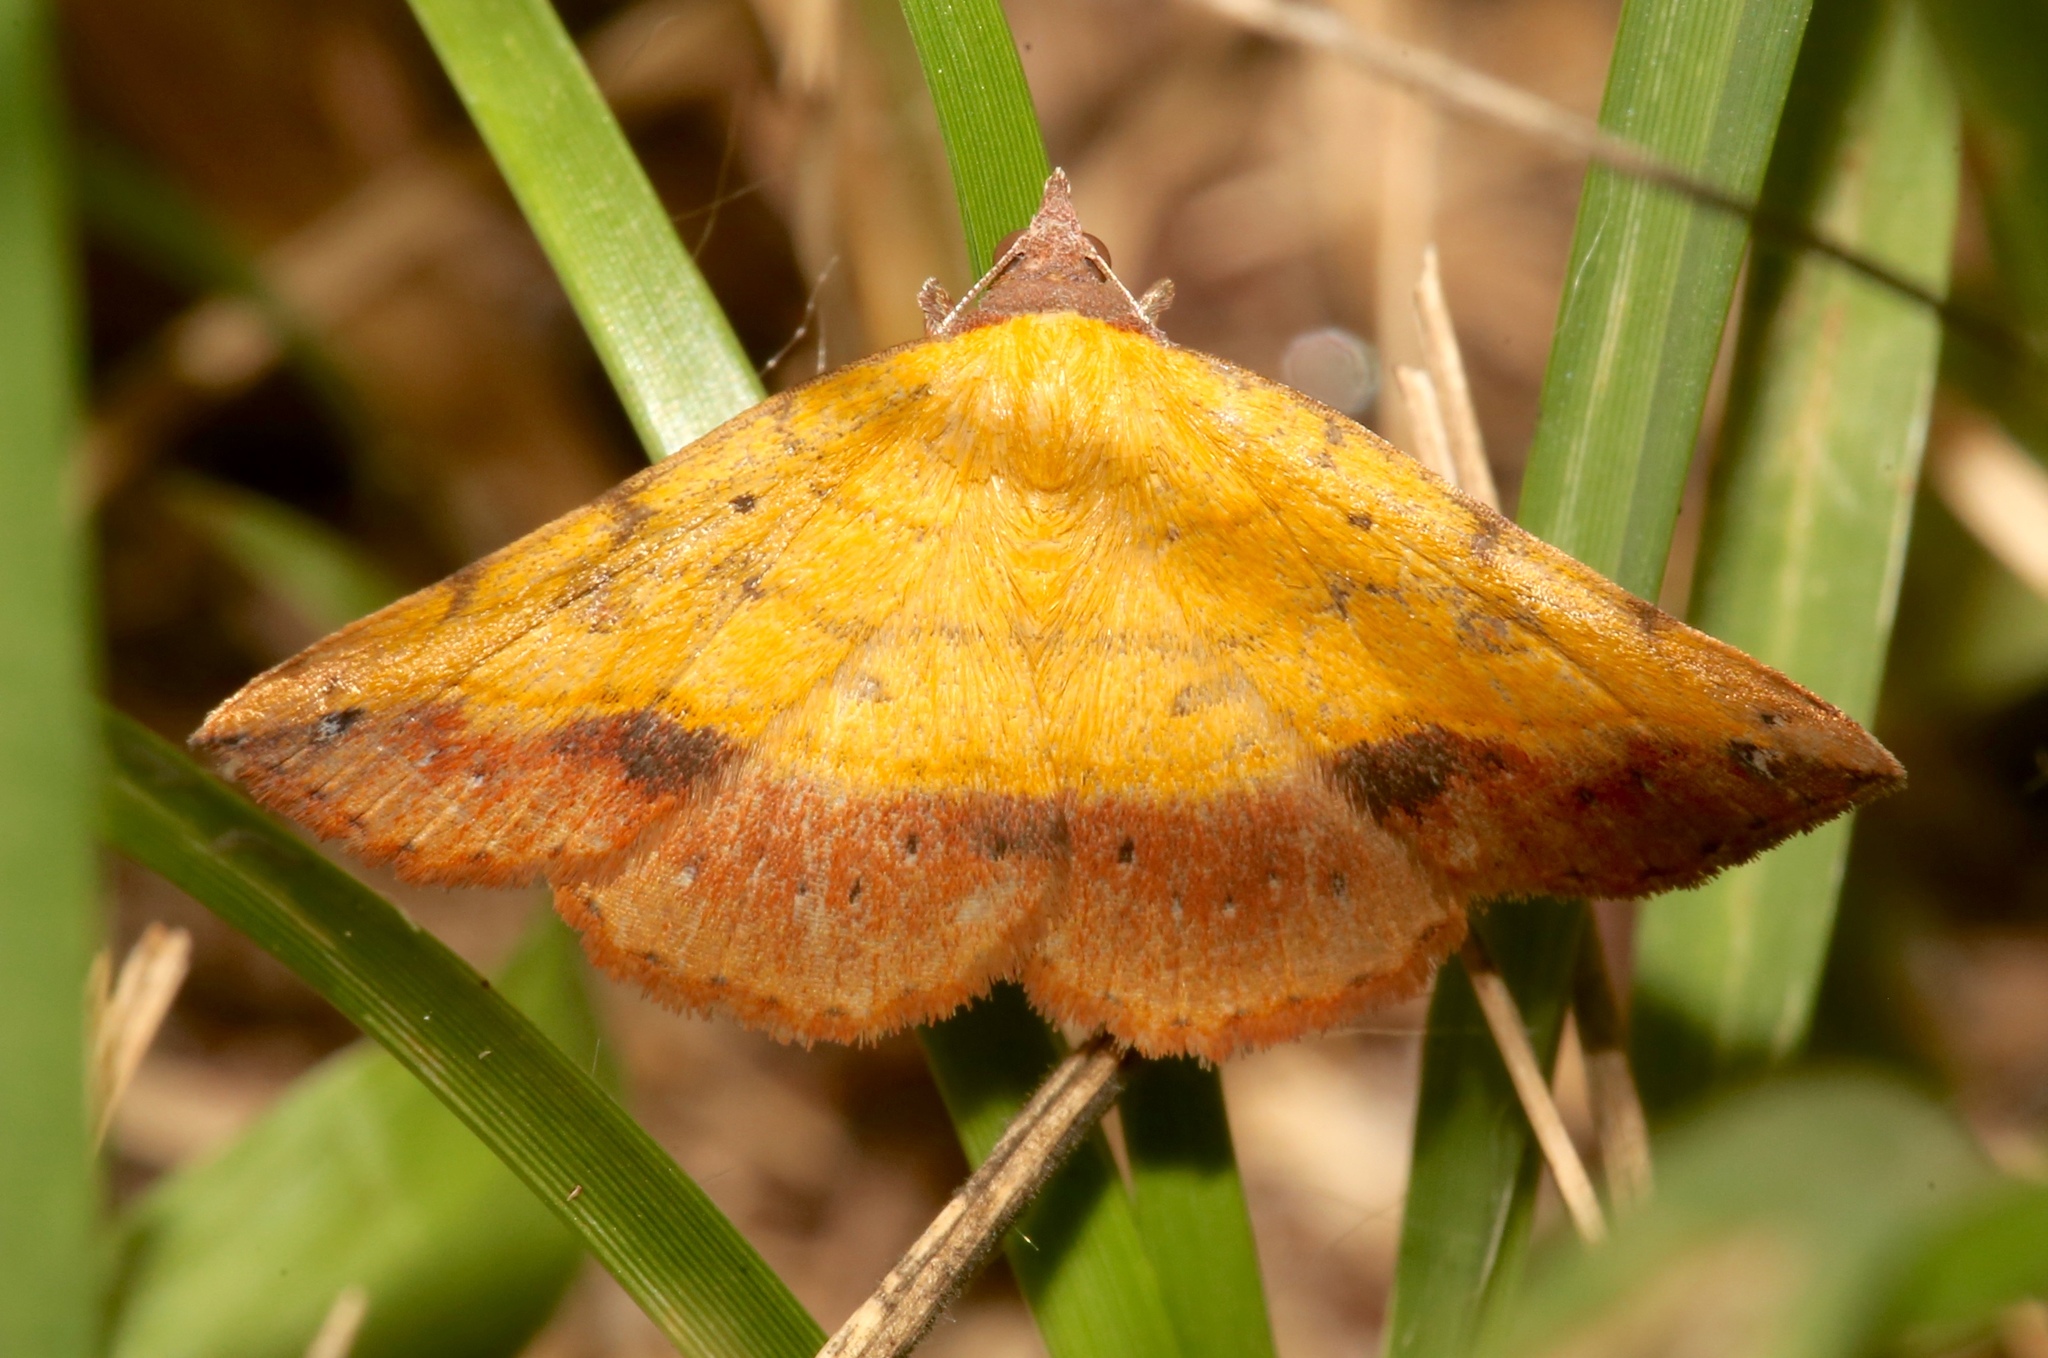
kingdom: Animalia
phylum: Arthropoda
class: Insecta
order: Lepidoptera
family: Erebidae
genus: Hemeroplanis
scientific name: Hemeroplanis scopulepes
